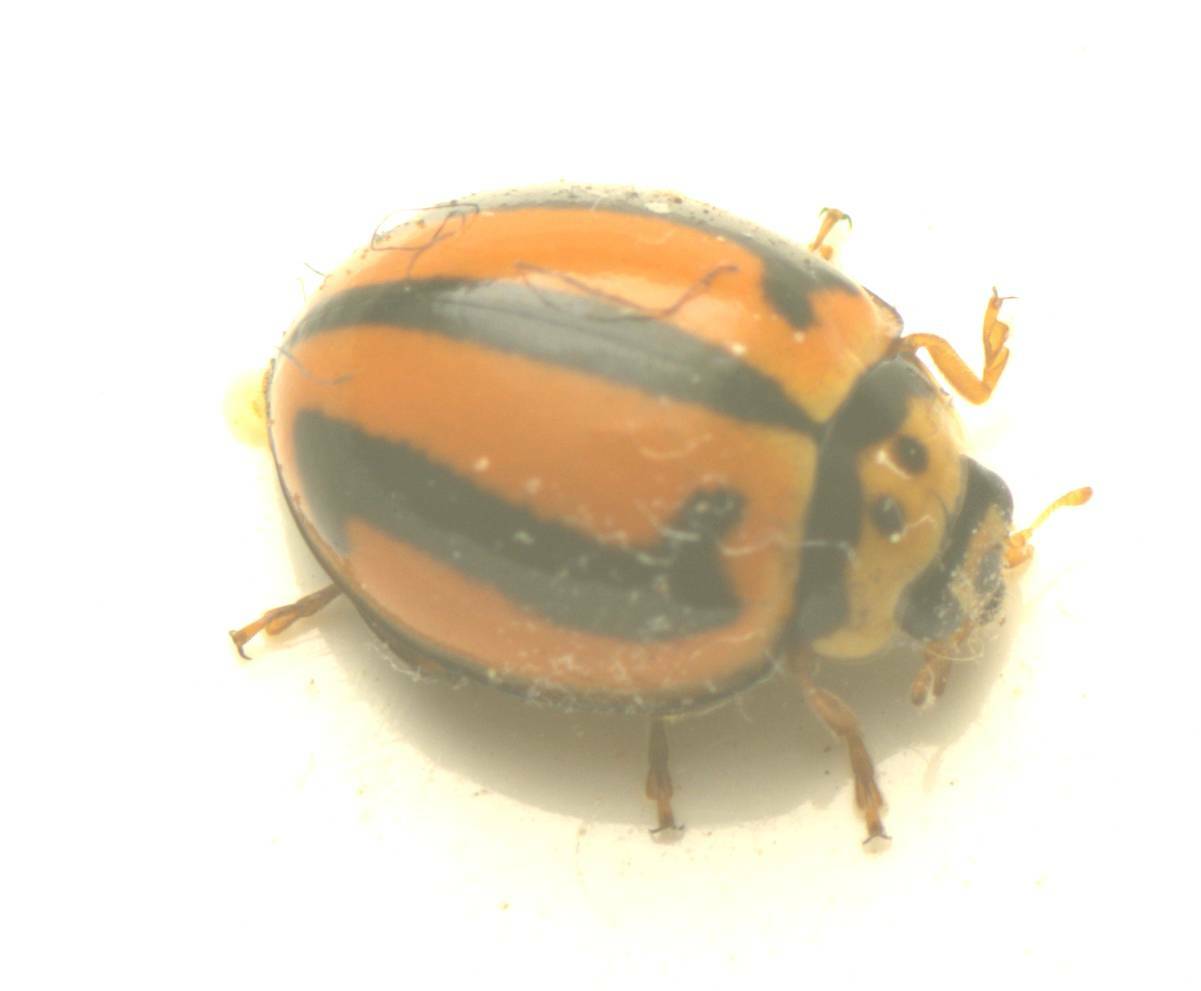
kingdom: Animalia
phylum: Arthropoda
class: Insecta
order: Coleoptera
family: Coccinellidae
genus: Micraspis
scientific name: Micraspis frenata
